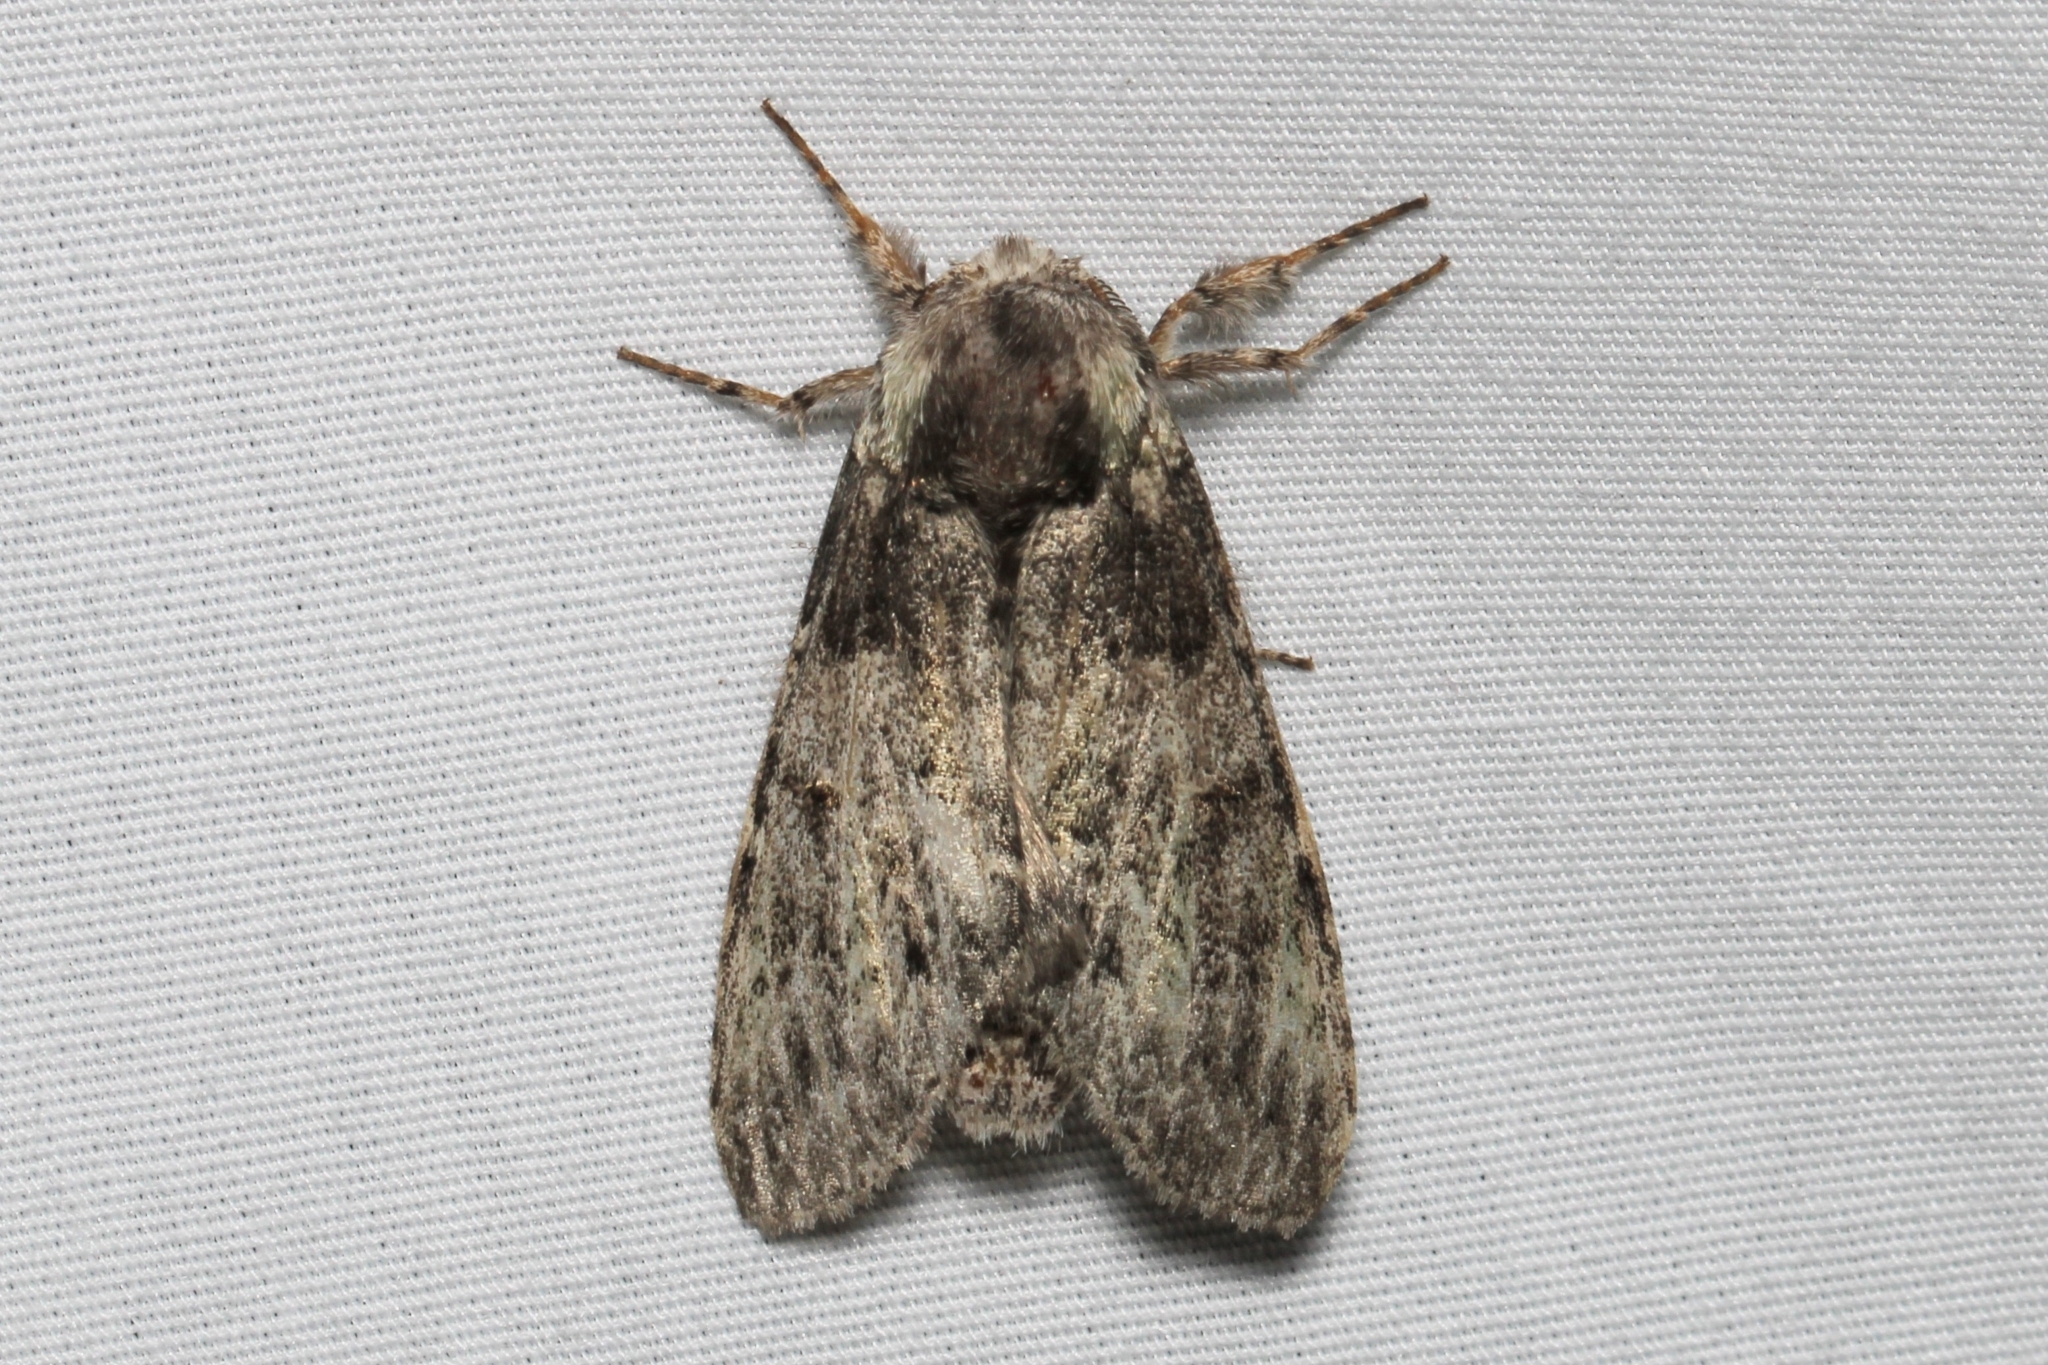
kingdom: Animalia
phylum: Arthropoda
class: Insecta
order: Lepidoptera
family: Notodontidae
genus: Macrurocampa
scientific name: Macrurocampa marthesia
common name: Mottled prominent
